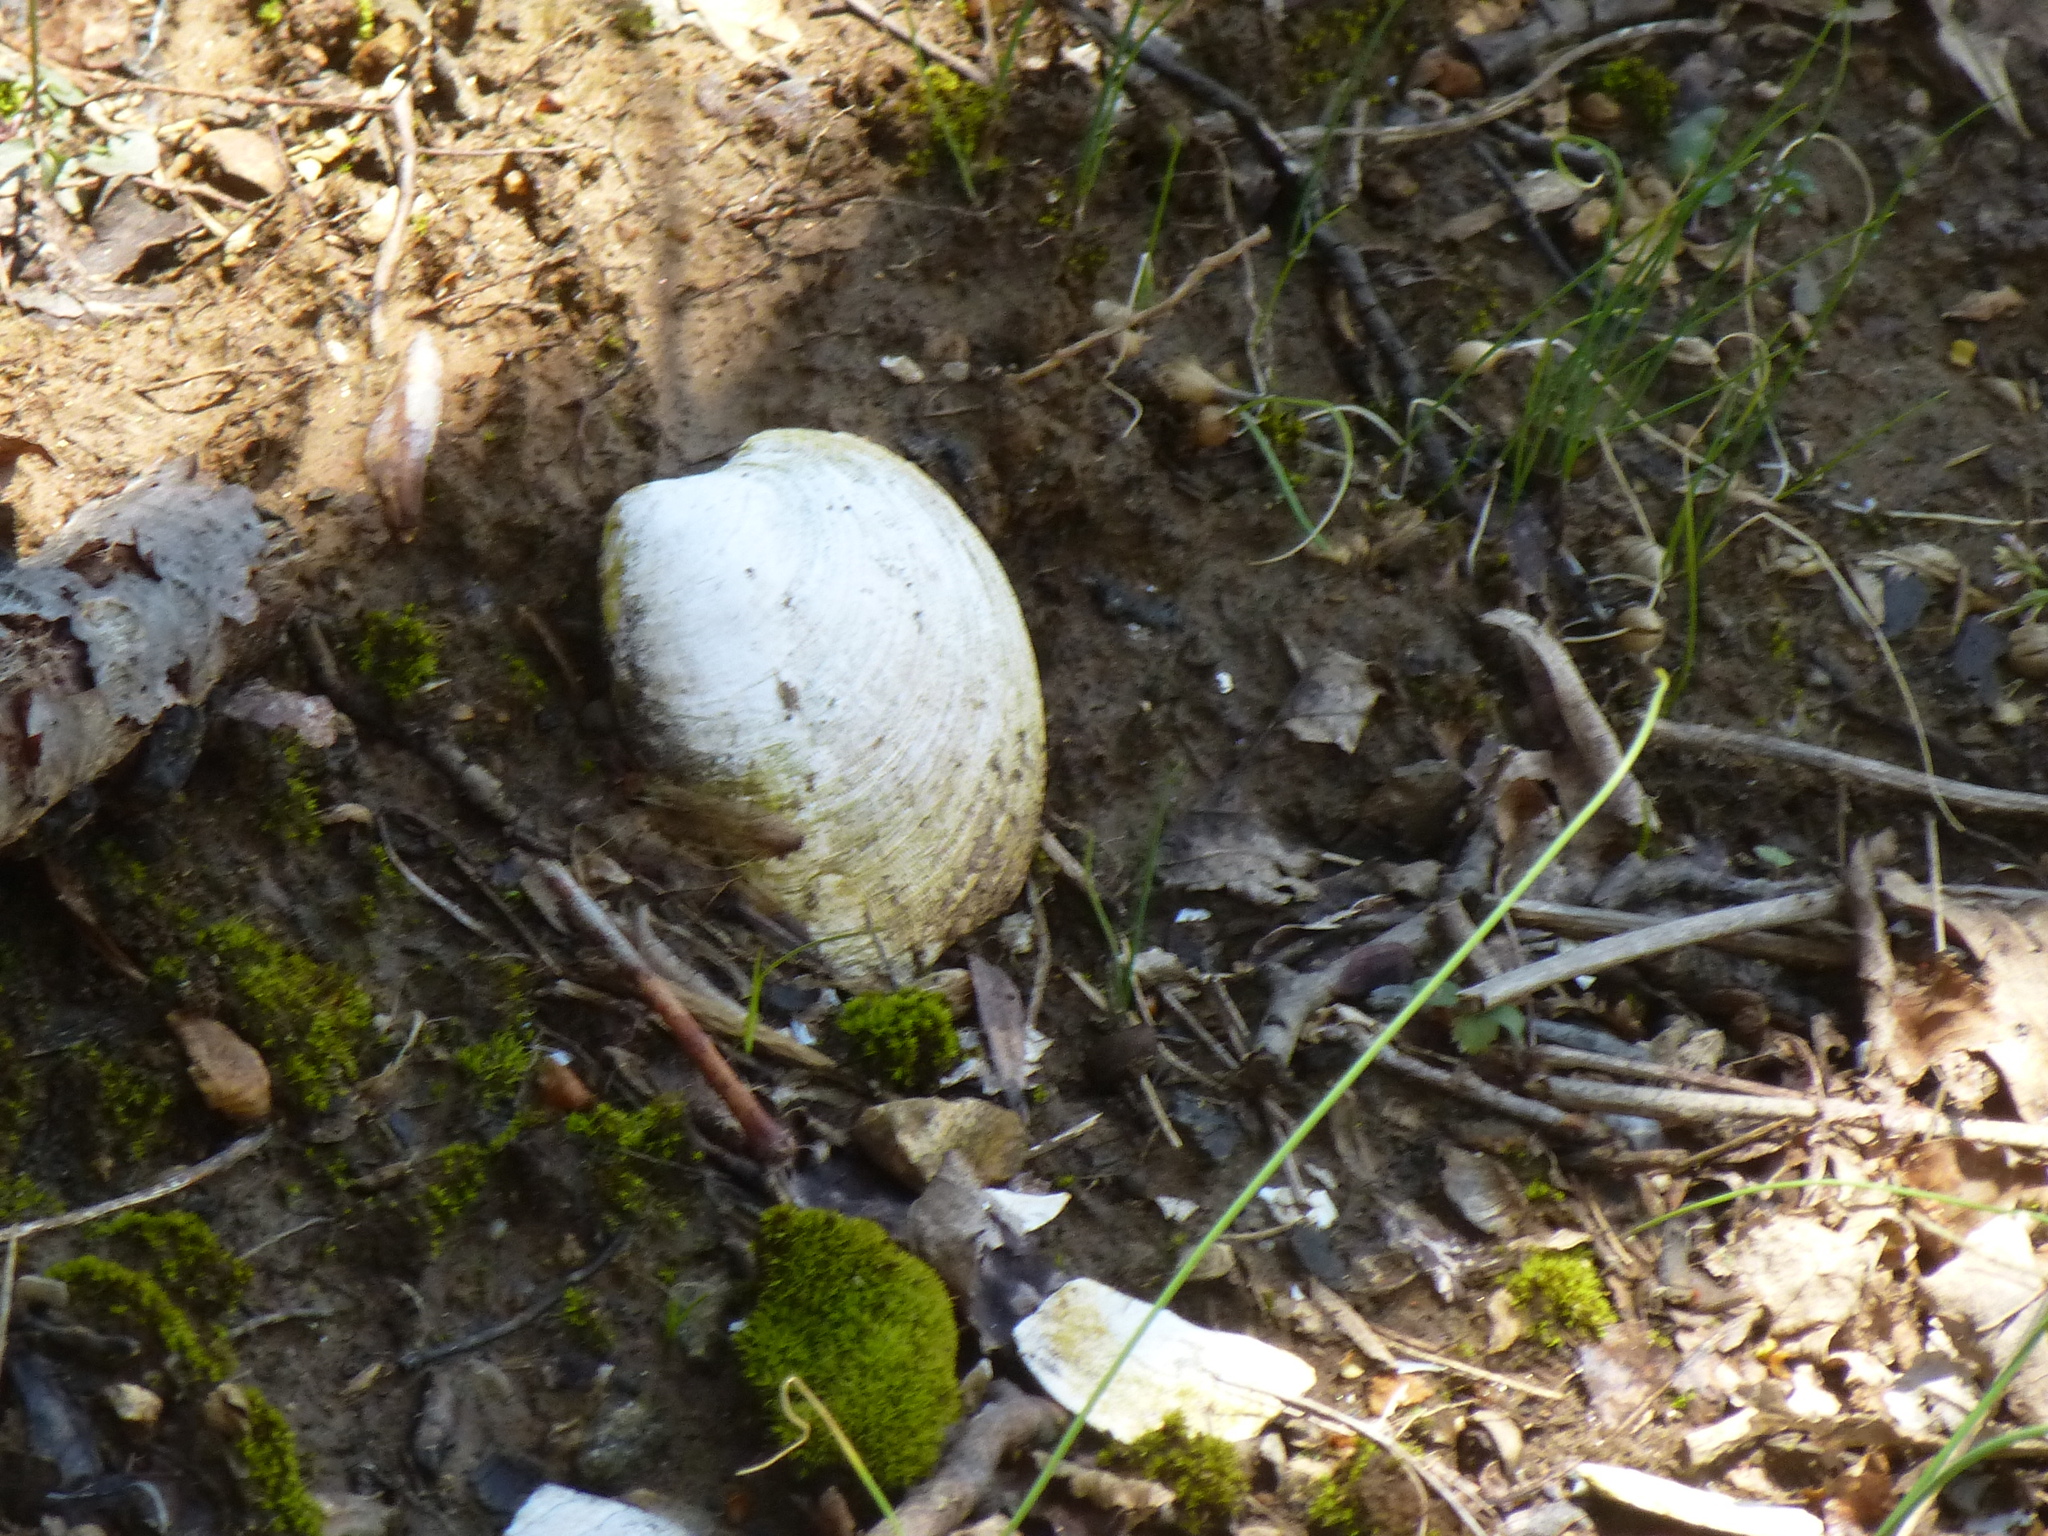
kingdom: Animalia
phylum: Mollusca
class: Bivalvia
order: Venerida
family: Veneridae
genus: Mercenaria
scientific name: Mercenaria mercenaria
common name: American hard-shelled clam
